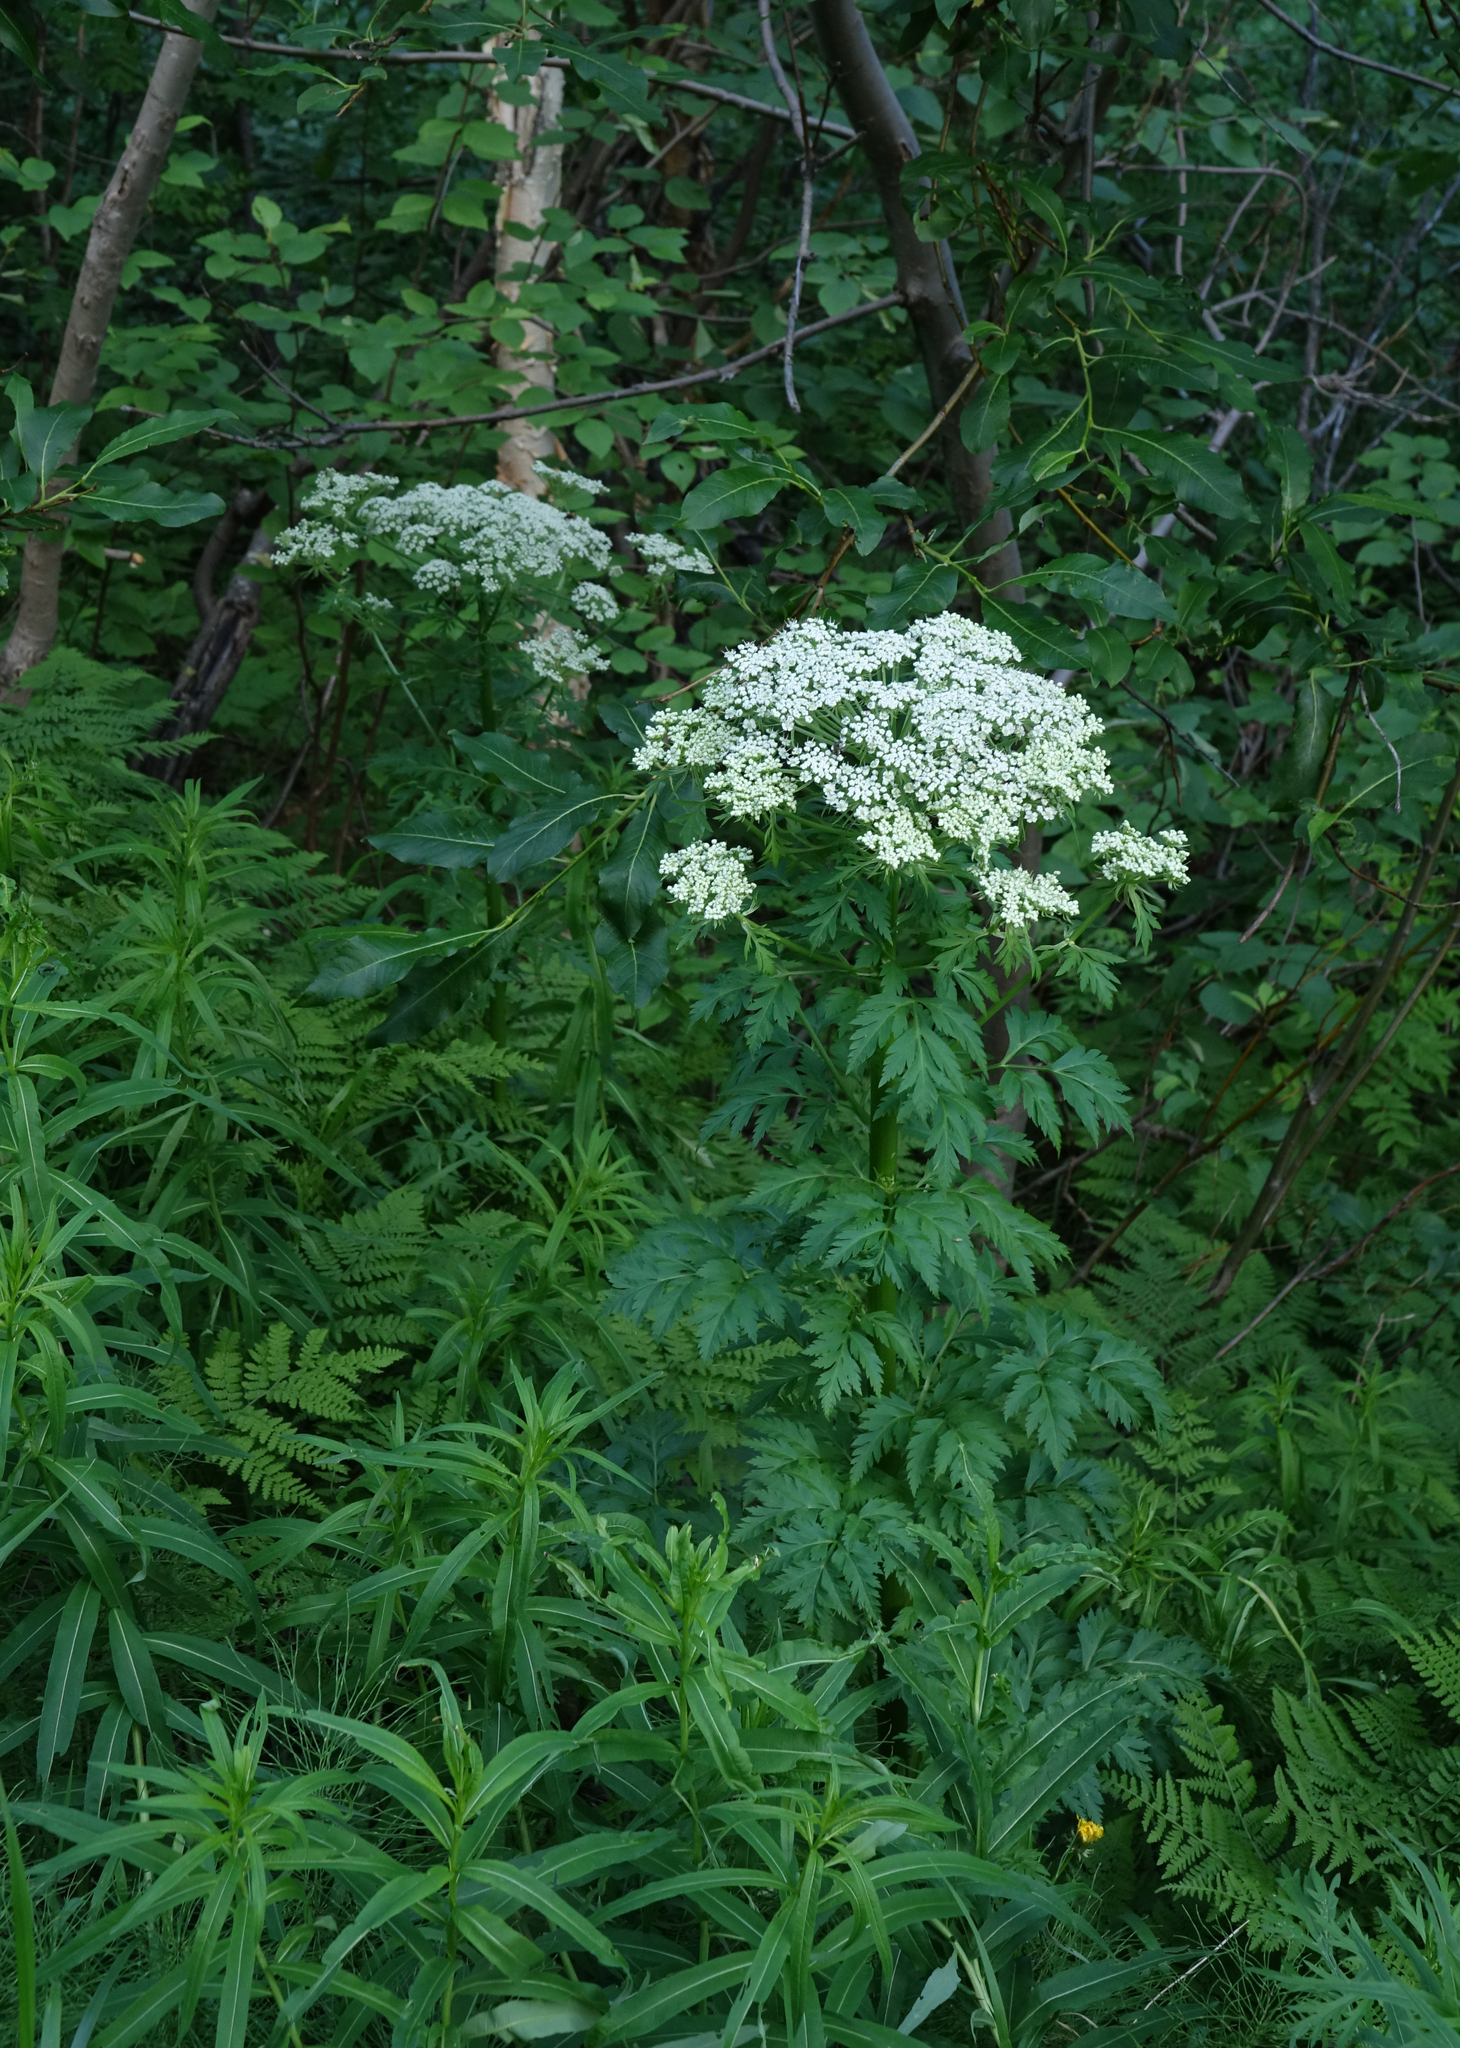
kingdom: Plantae
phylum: Tracheophyta
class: Magnoliopsida
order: Apiales
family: Apiaceae
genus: Pleurospermum
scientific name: Pleurospermum uralense
